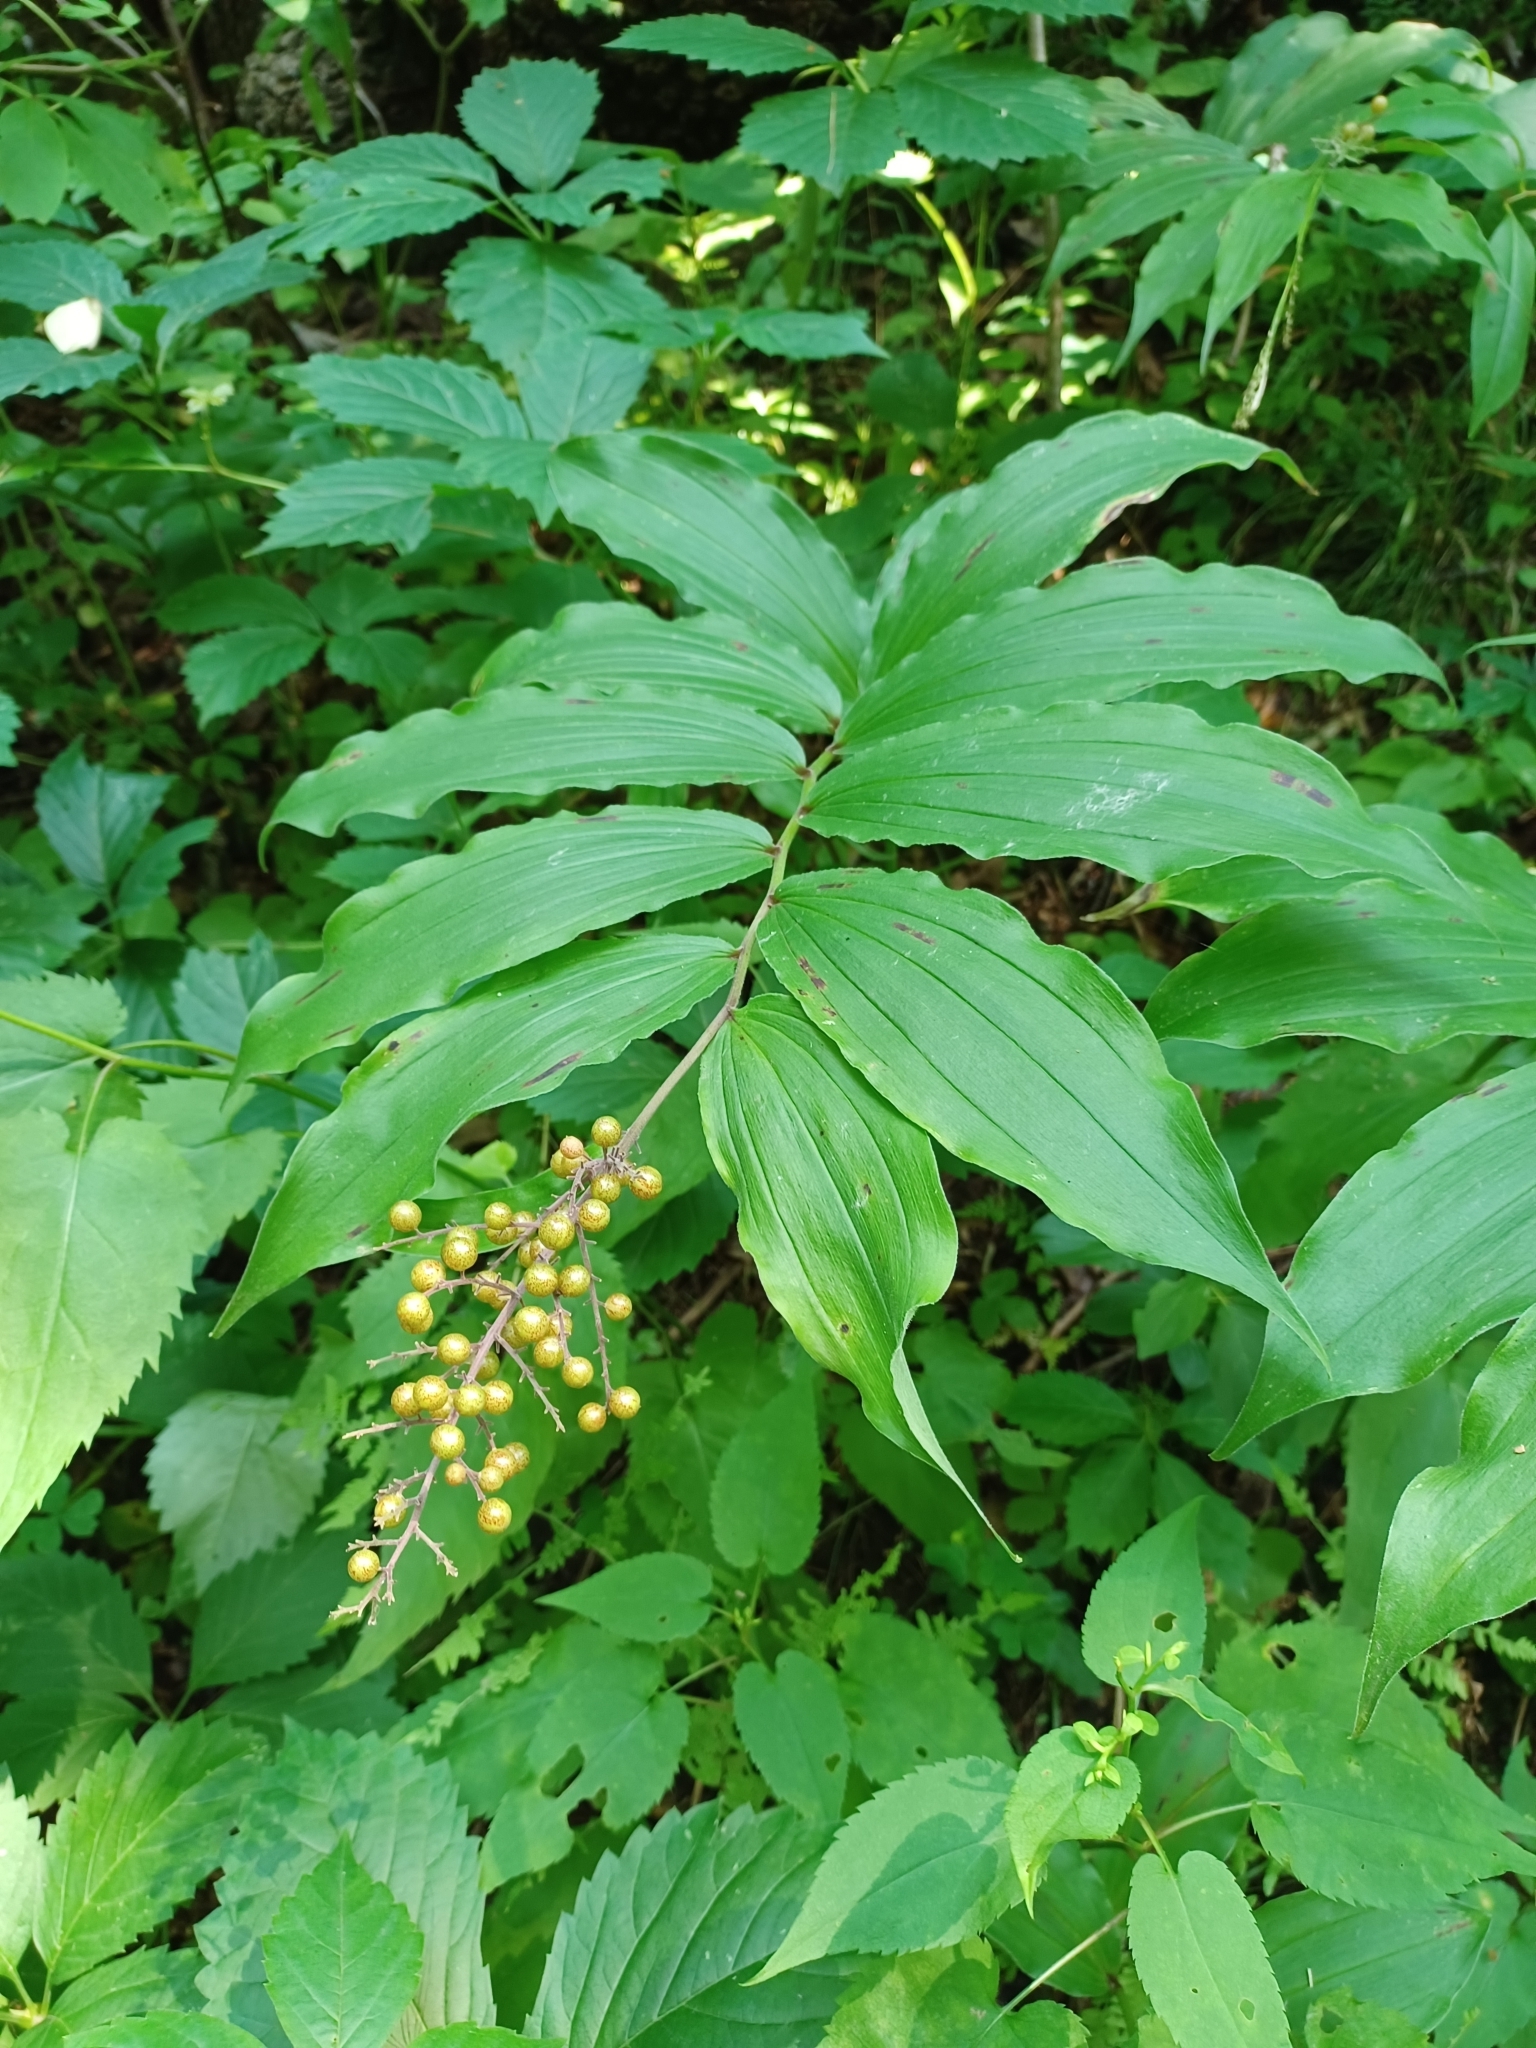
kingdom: Plantae
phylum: Tracheophyta
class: Liliopsida
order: Asparagales
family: Asparagaceae
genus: Maianthemum
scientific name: Maianthemum racemosum
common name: False spikenard
